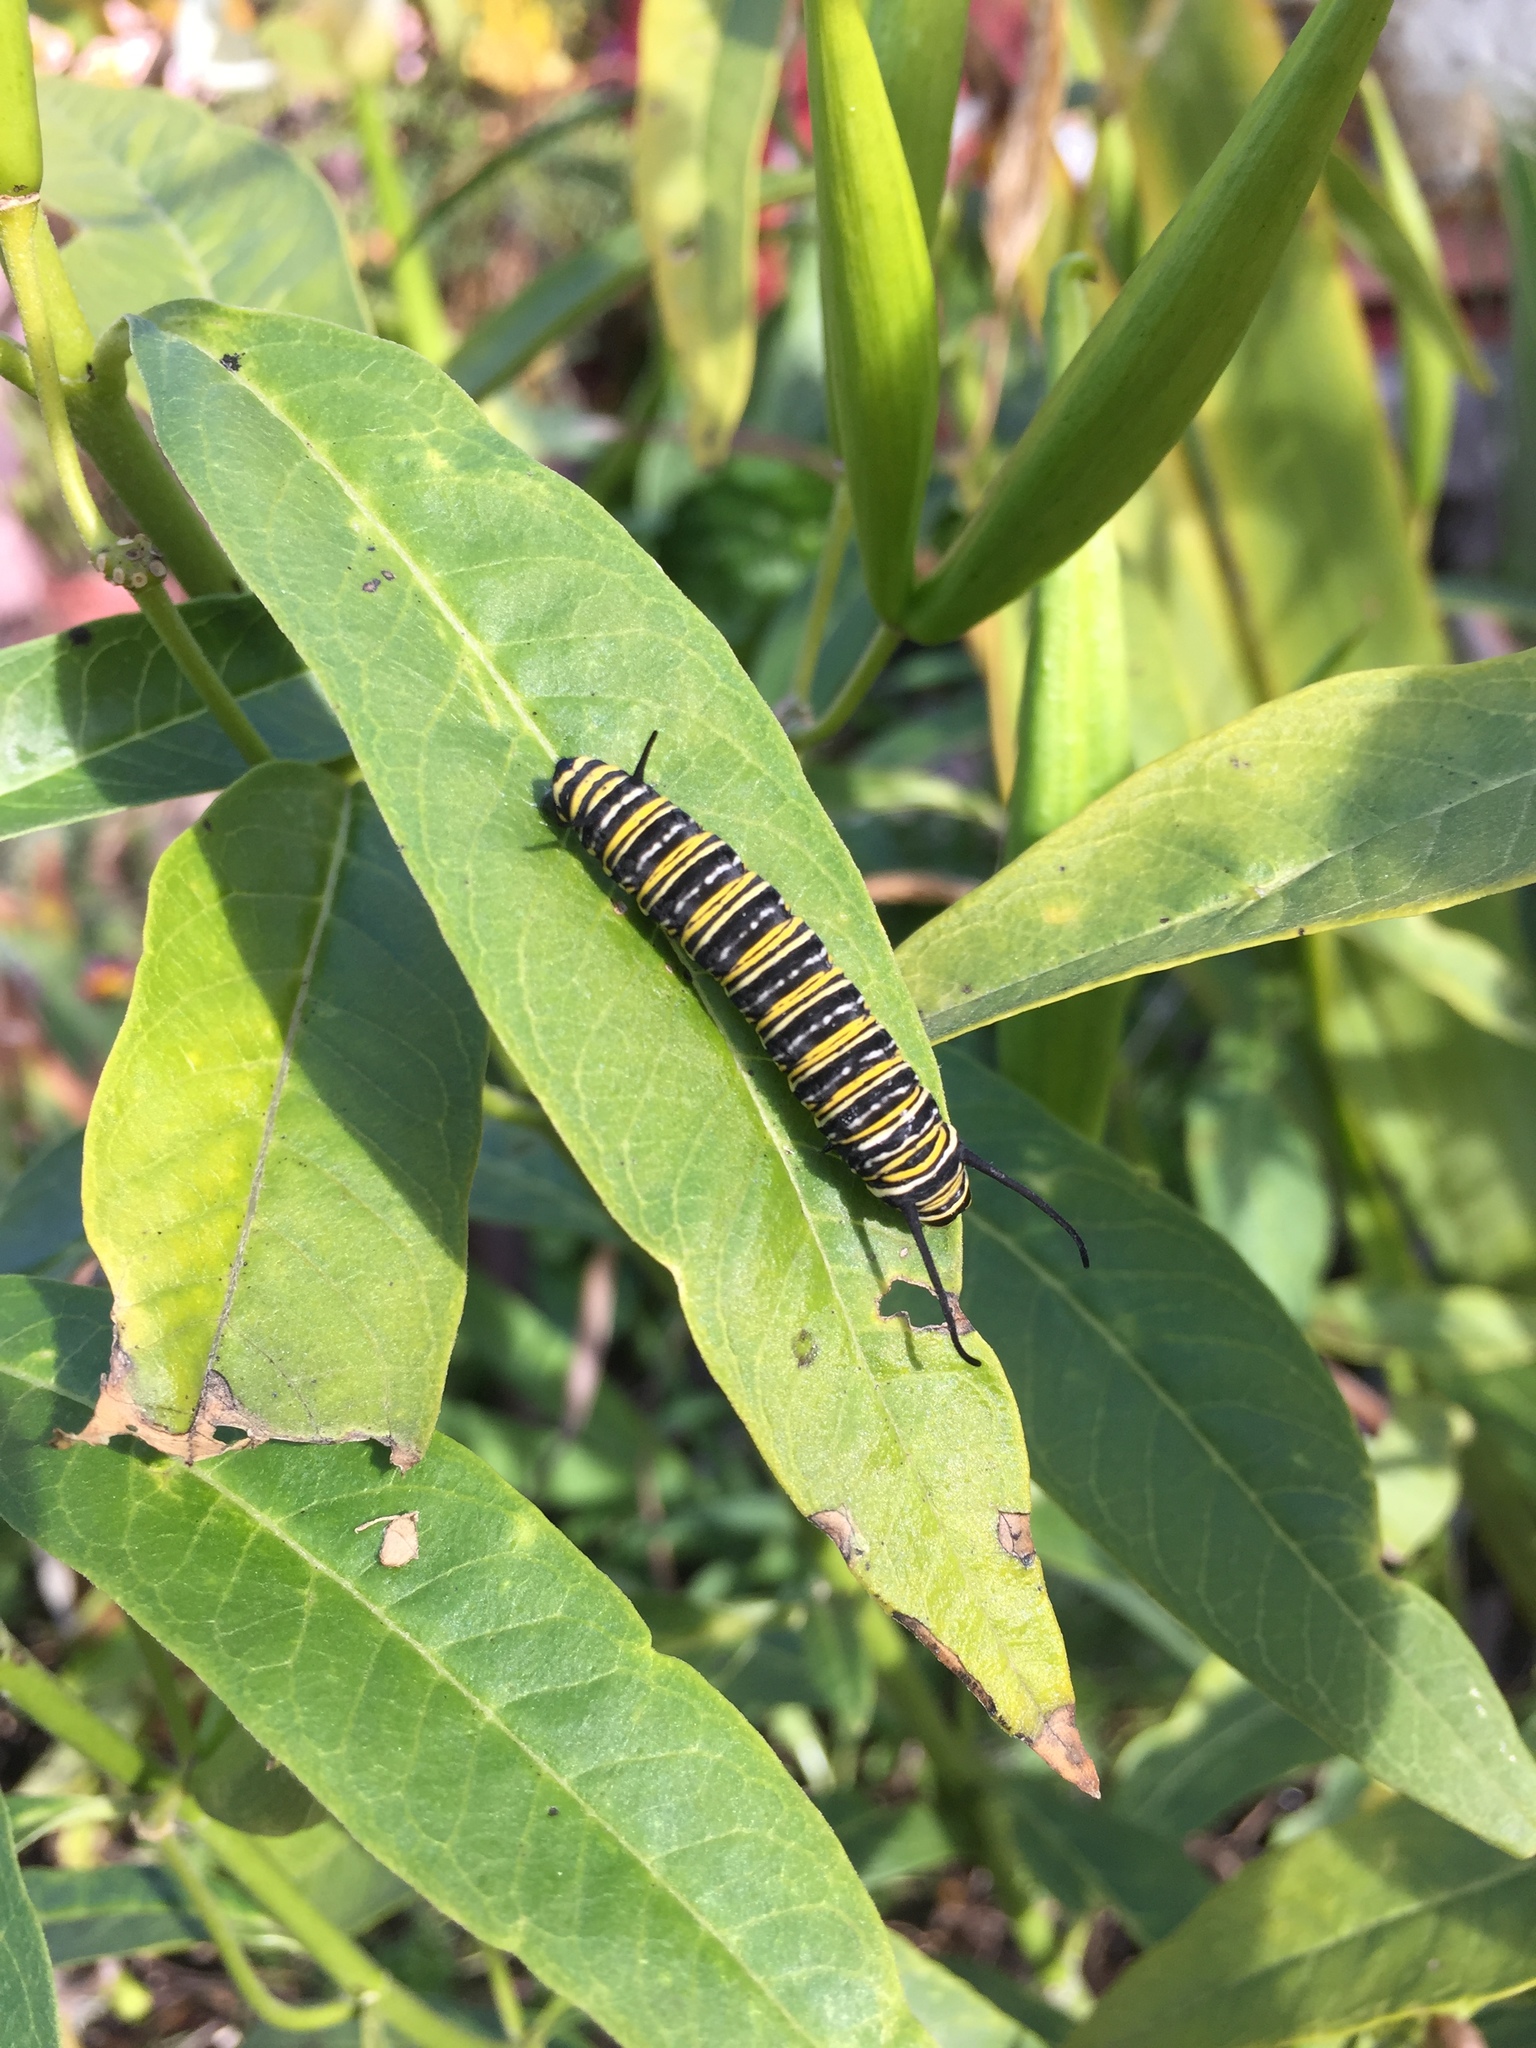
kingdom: Animalia
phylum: Arthropoda
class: Insecta
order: Lepidoptera
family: Nymphalidae
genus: Danaus
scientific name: Danaus plexippus
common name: Monarch
